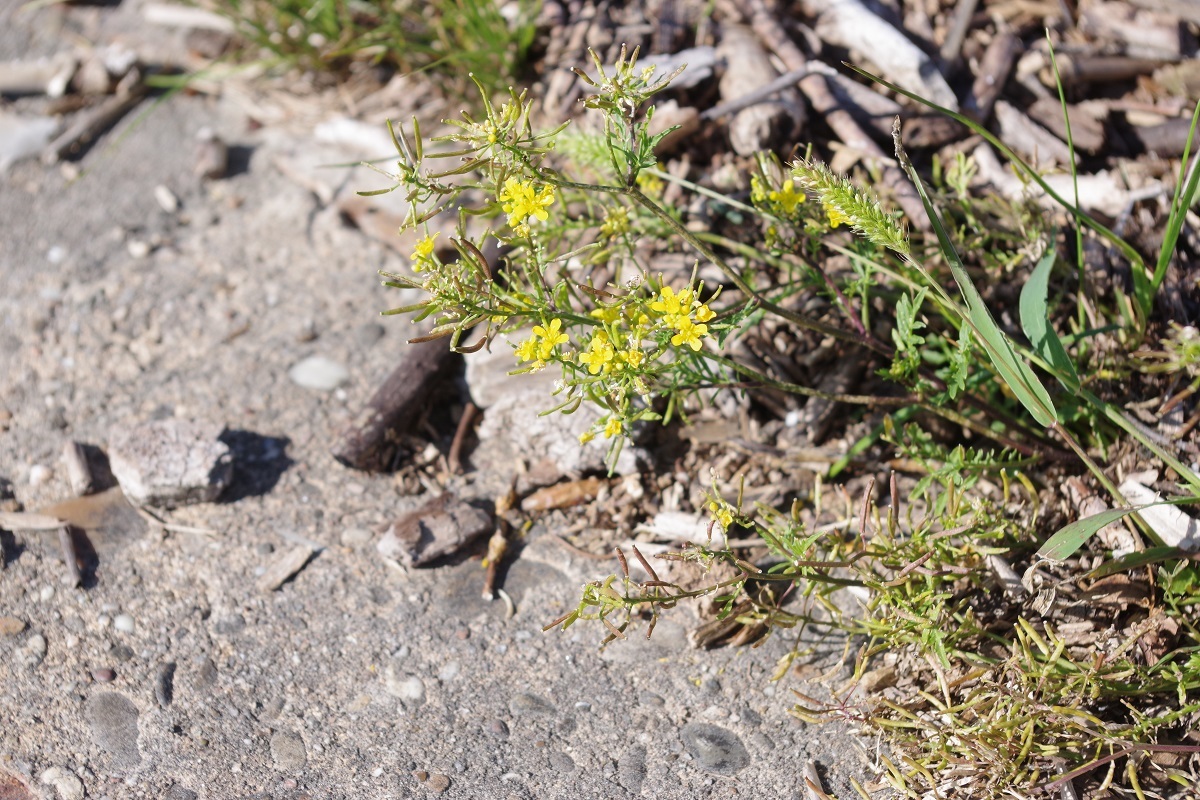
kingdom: Plantae
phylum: Tracheophyta
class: Magnoliopsida
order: Brassicales
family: Brassicaceae
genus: Rorippa
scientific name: Rorippa sylvestris
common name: Creeping yellowcress
